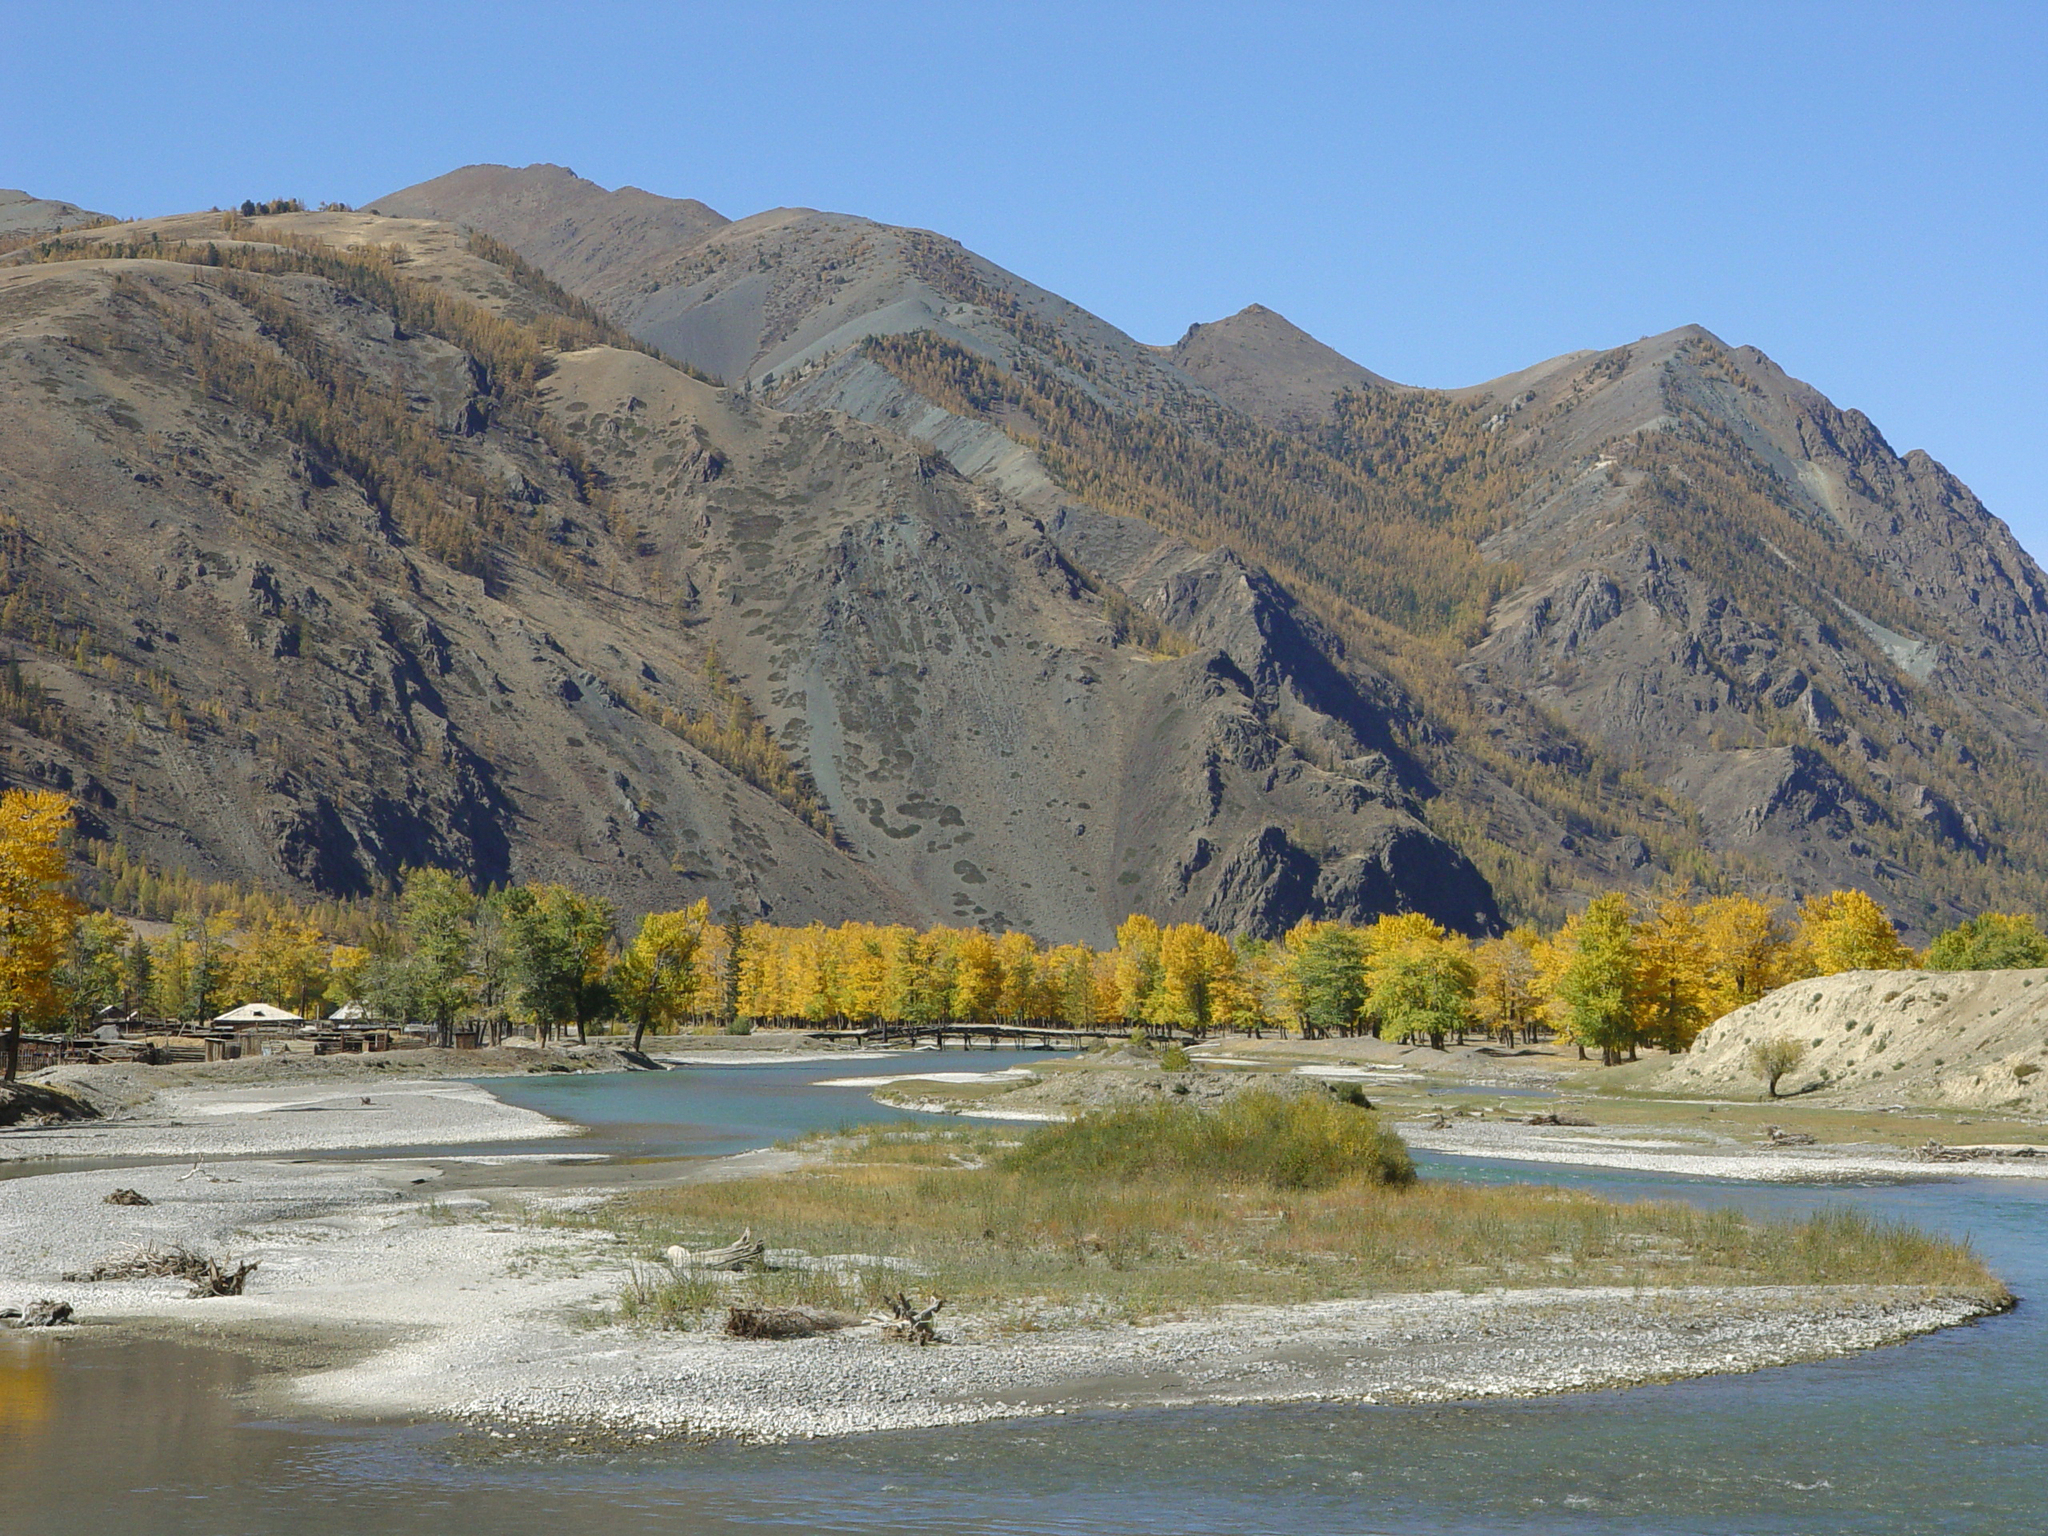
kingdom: Plantae
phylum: Tracheophyta
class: Magnoliopsida
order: Malpighiales
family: Salicaceae
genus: Populus
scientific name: Populus laurifolia
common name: Laurel-leaf poplar
